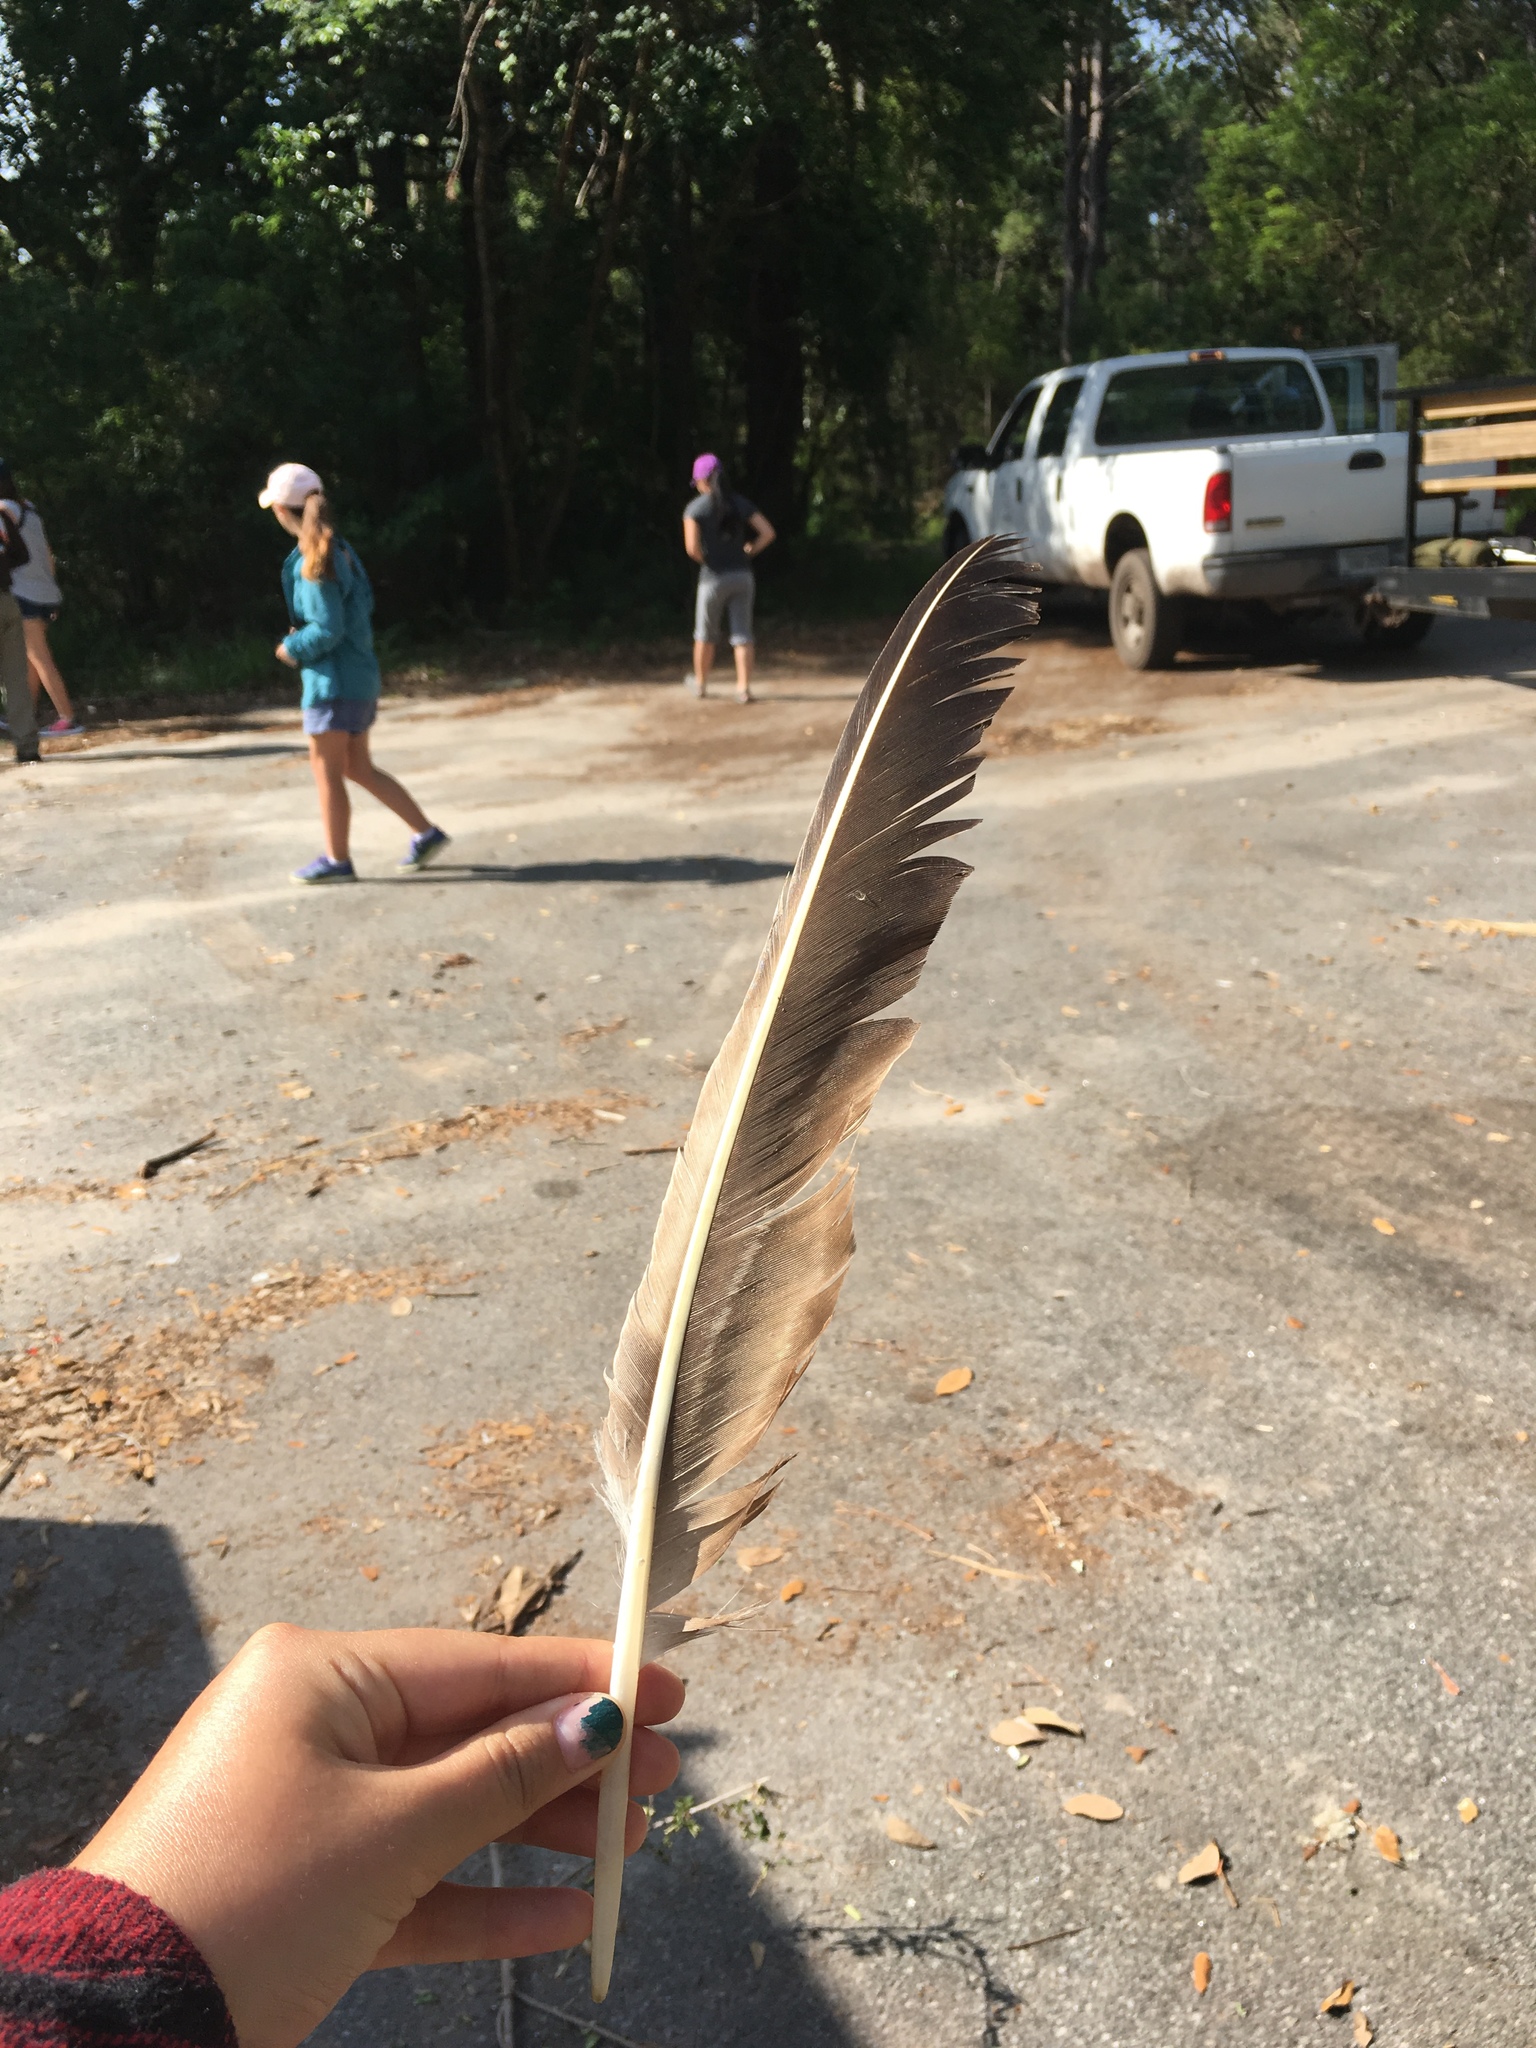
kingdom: Animalia
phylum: Chordata
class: Aves
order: Accipitriformes
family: Cathartidae
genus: Coragyps
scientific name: Coragyps atratus
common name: Black vulture
